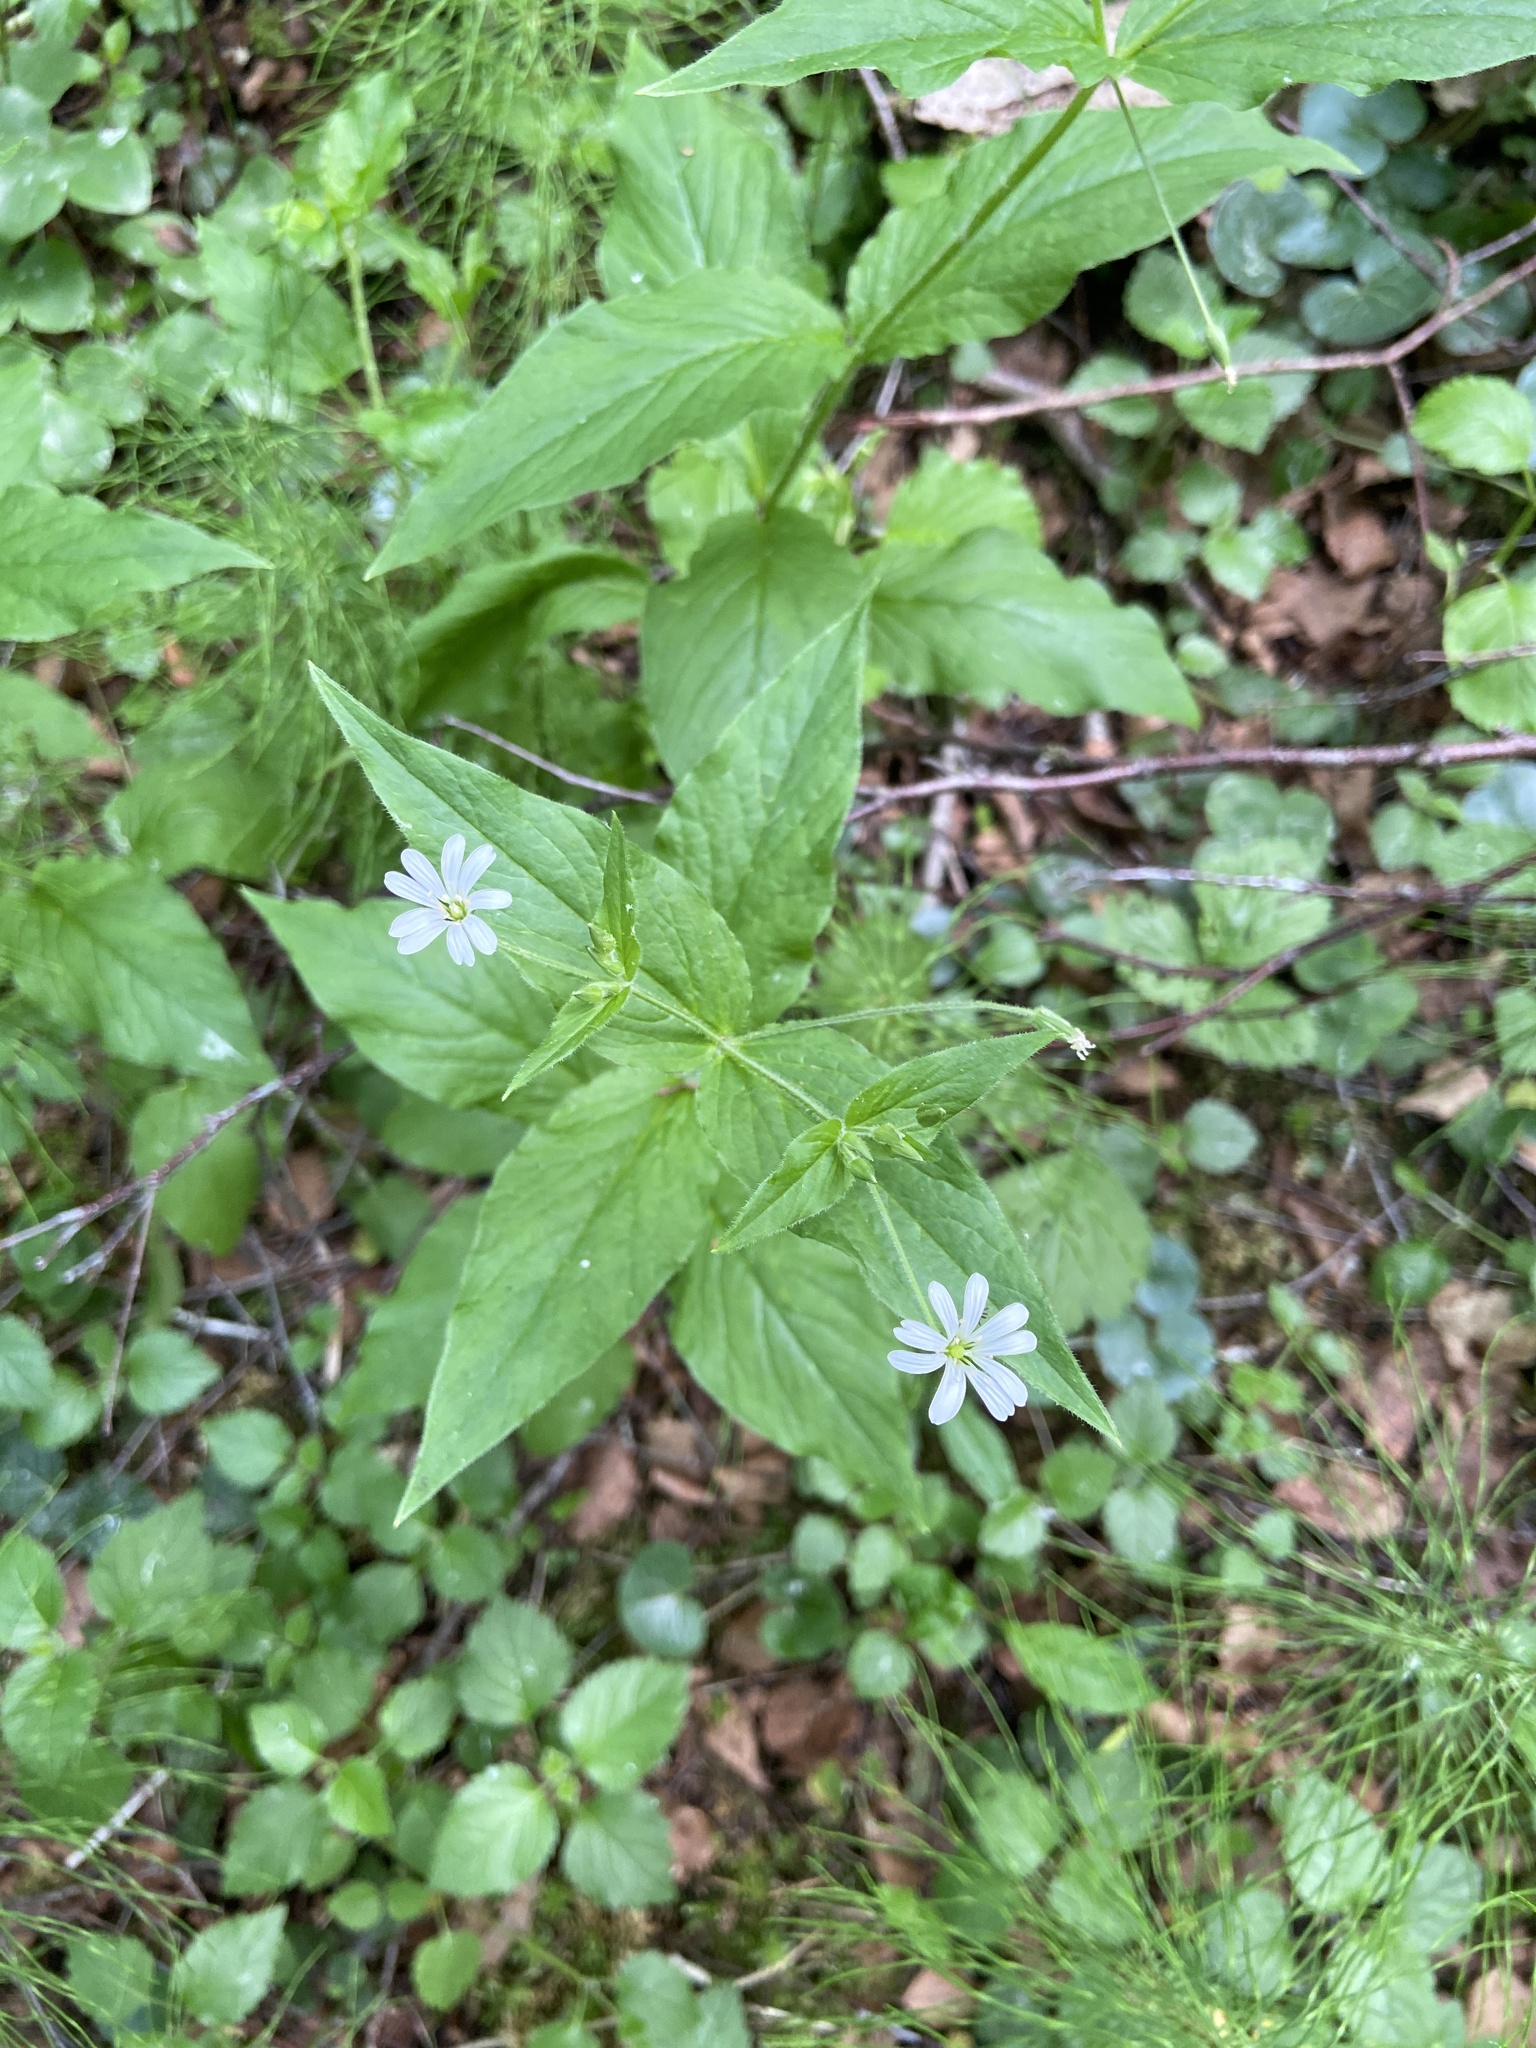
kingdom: Plantae
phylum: Tracheophyta
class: Magnoliopsida
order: Caryophyllales
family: Caryophyllaceae
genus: Stellaria
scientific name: Stellaria nemorum
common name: Wood stitchwort
